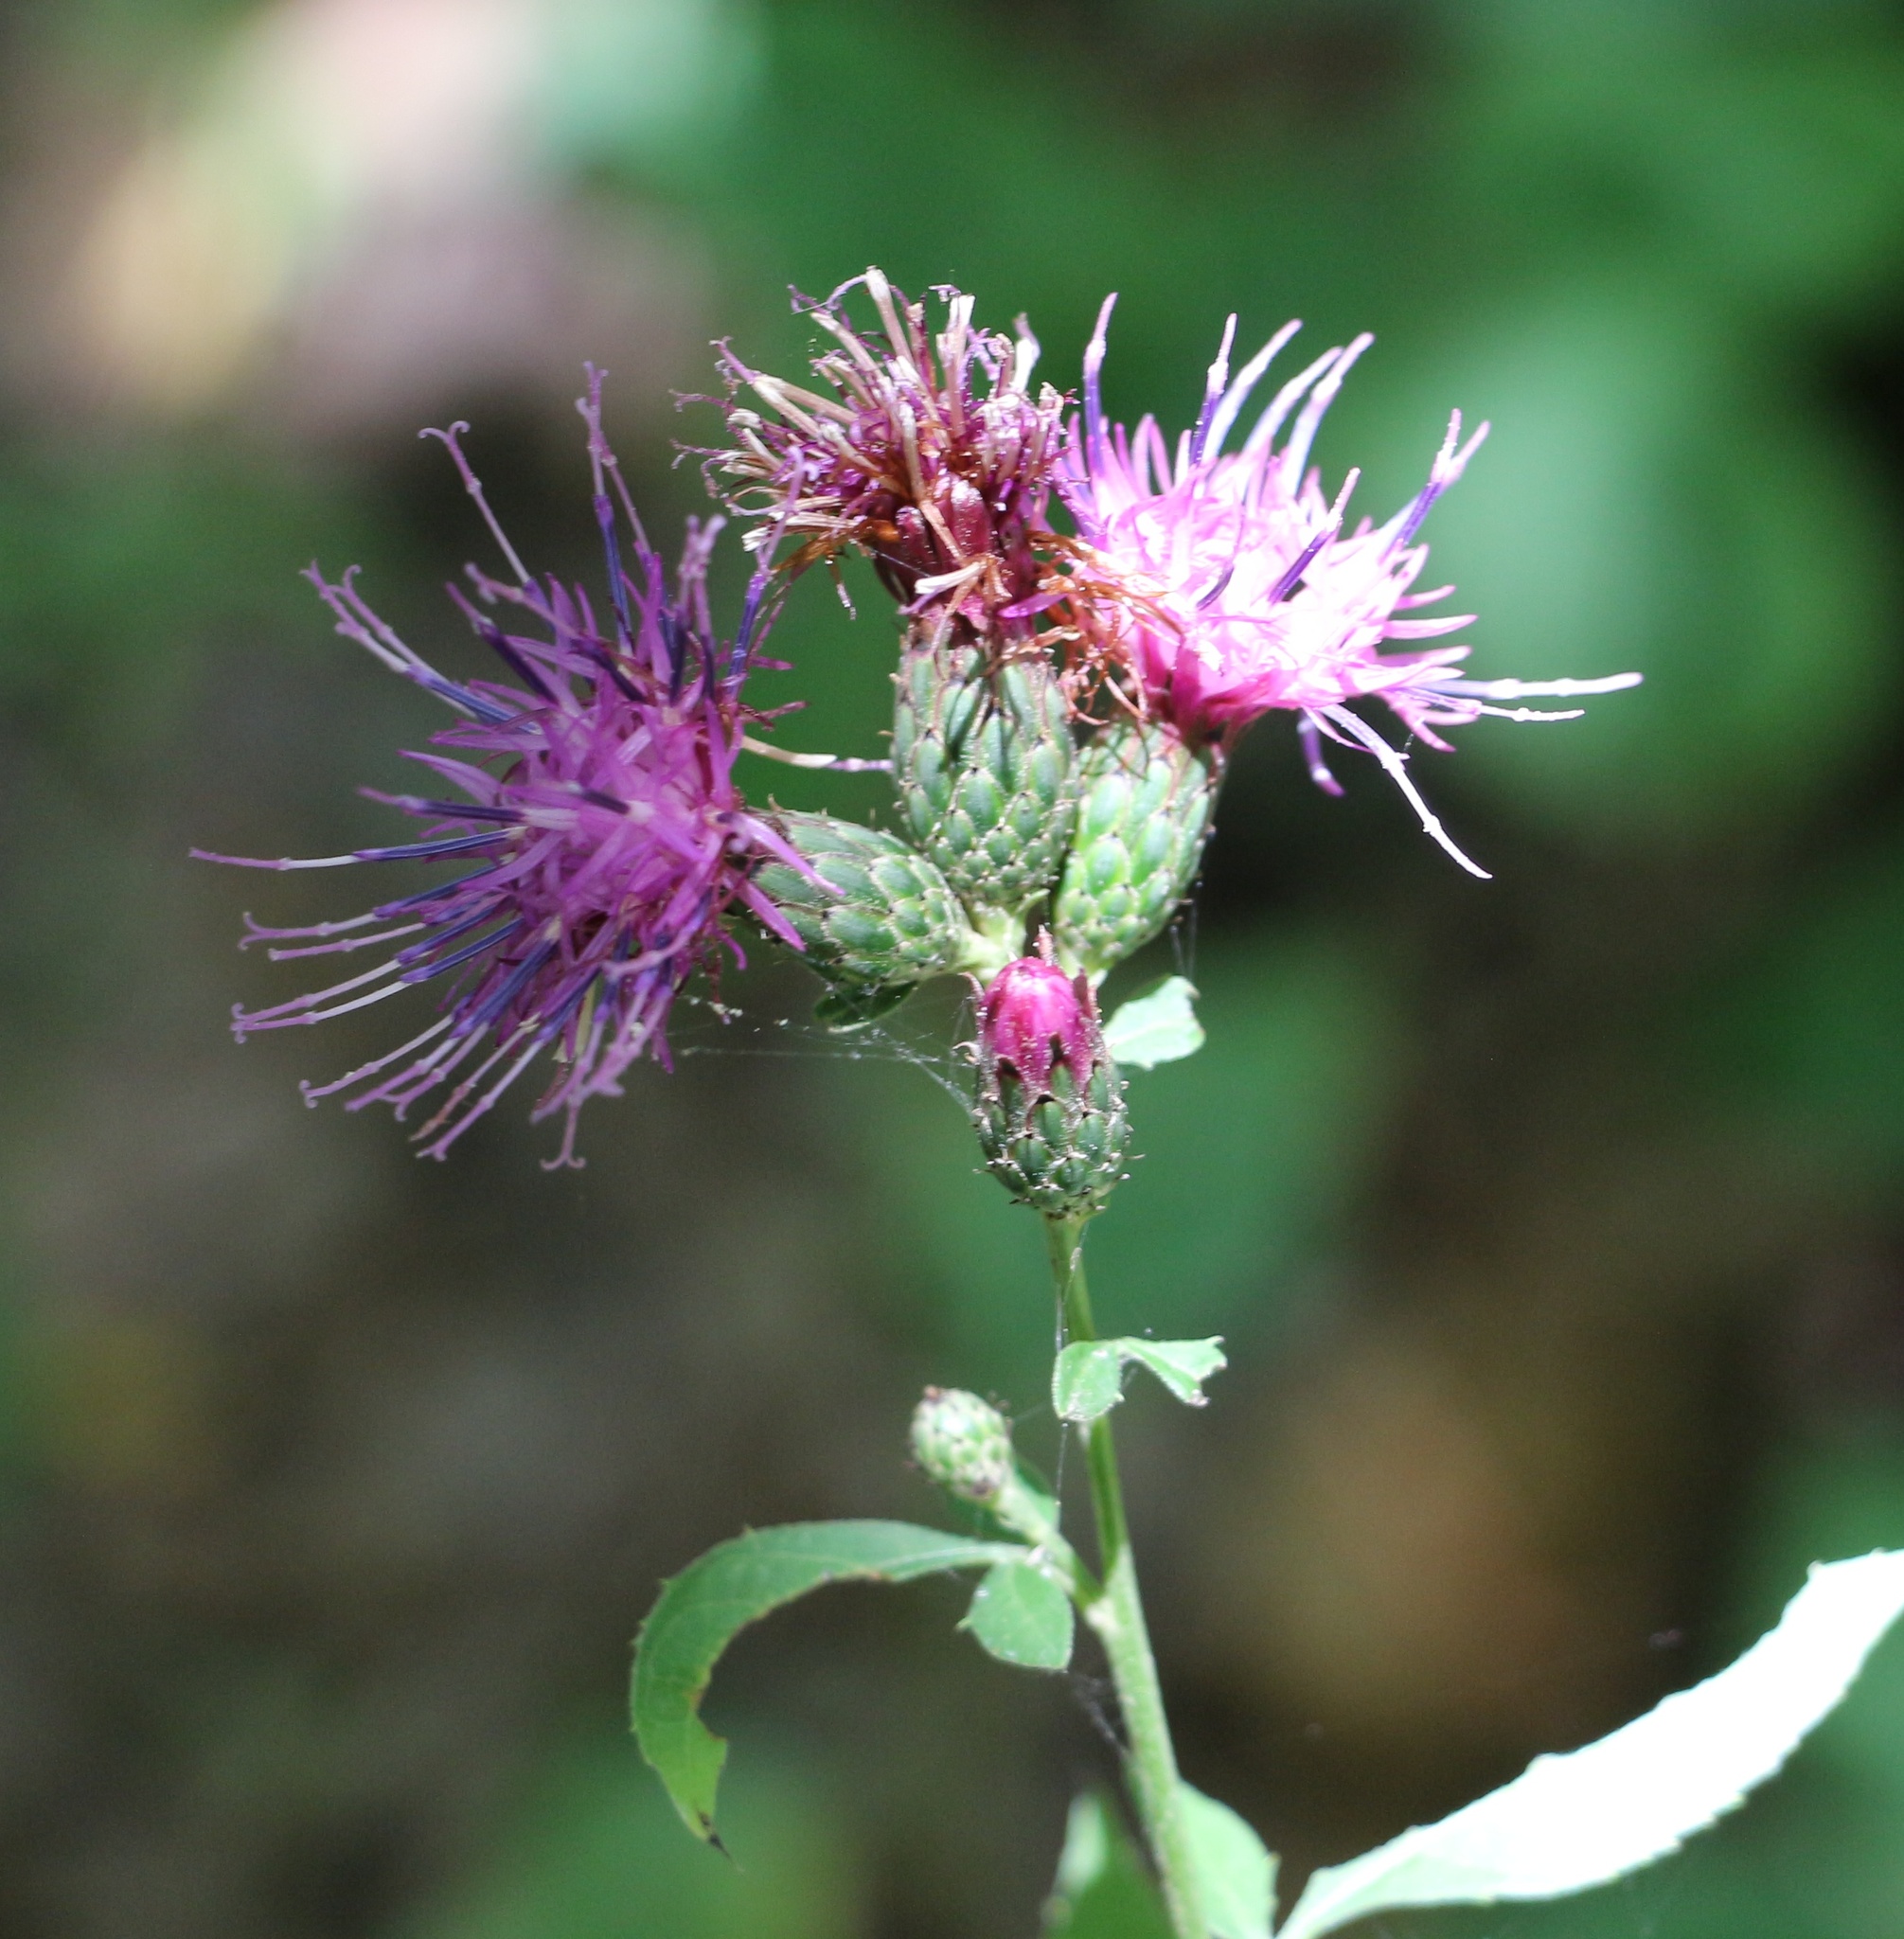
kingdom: Plantae
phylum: Tracheophyta
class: Magnoliopsida
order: Asterales
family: Asteraceae
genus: Klasea
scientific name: Klasea quinquefolia
